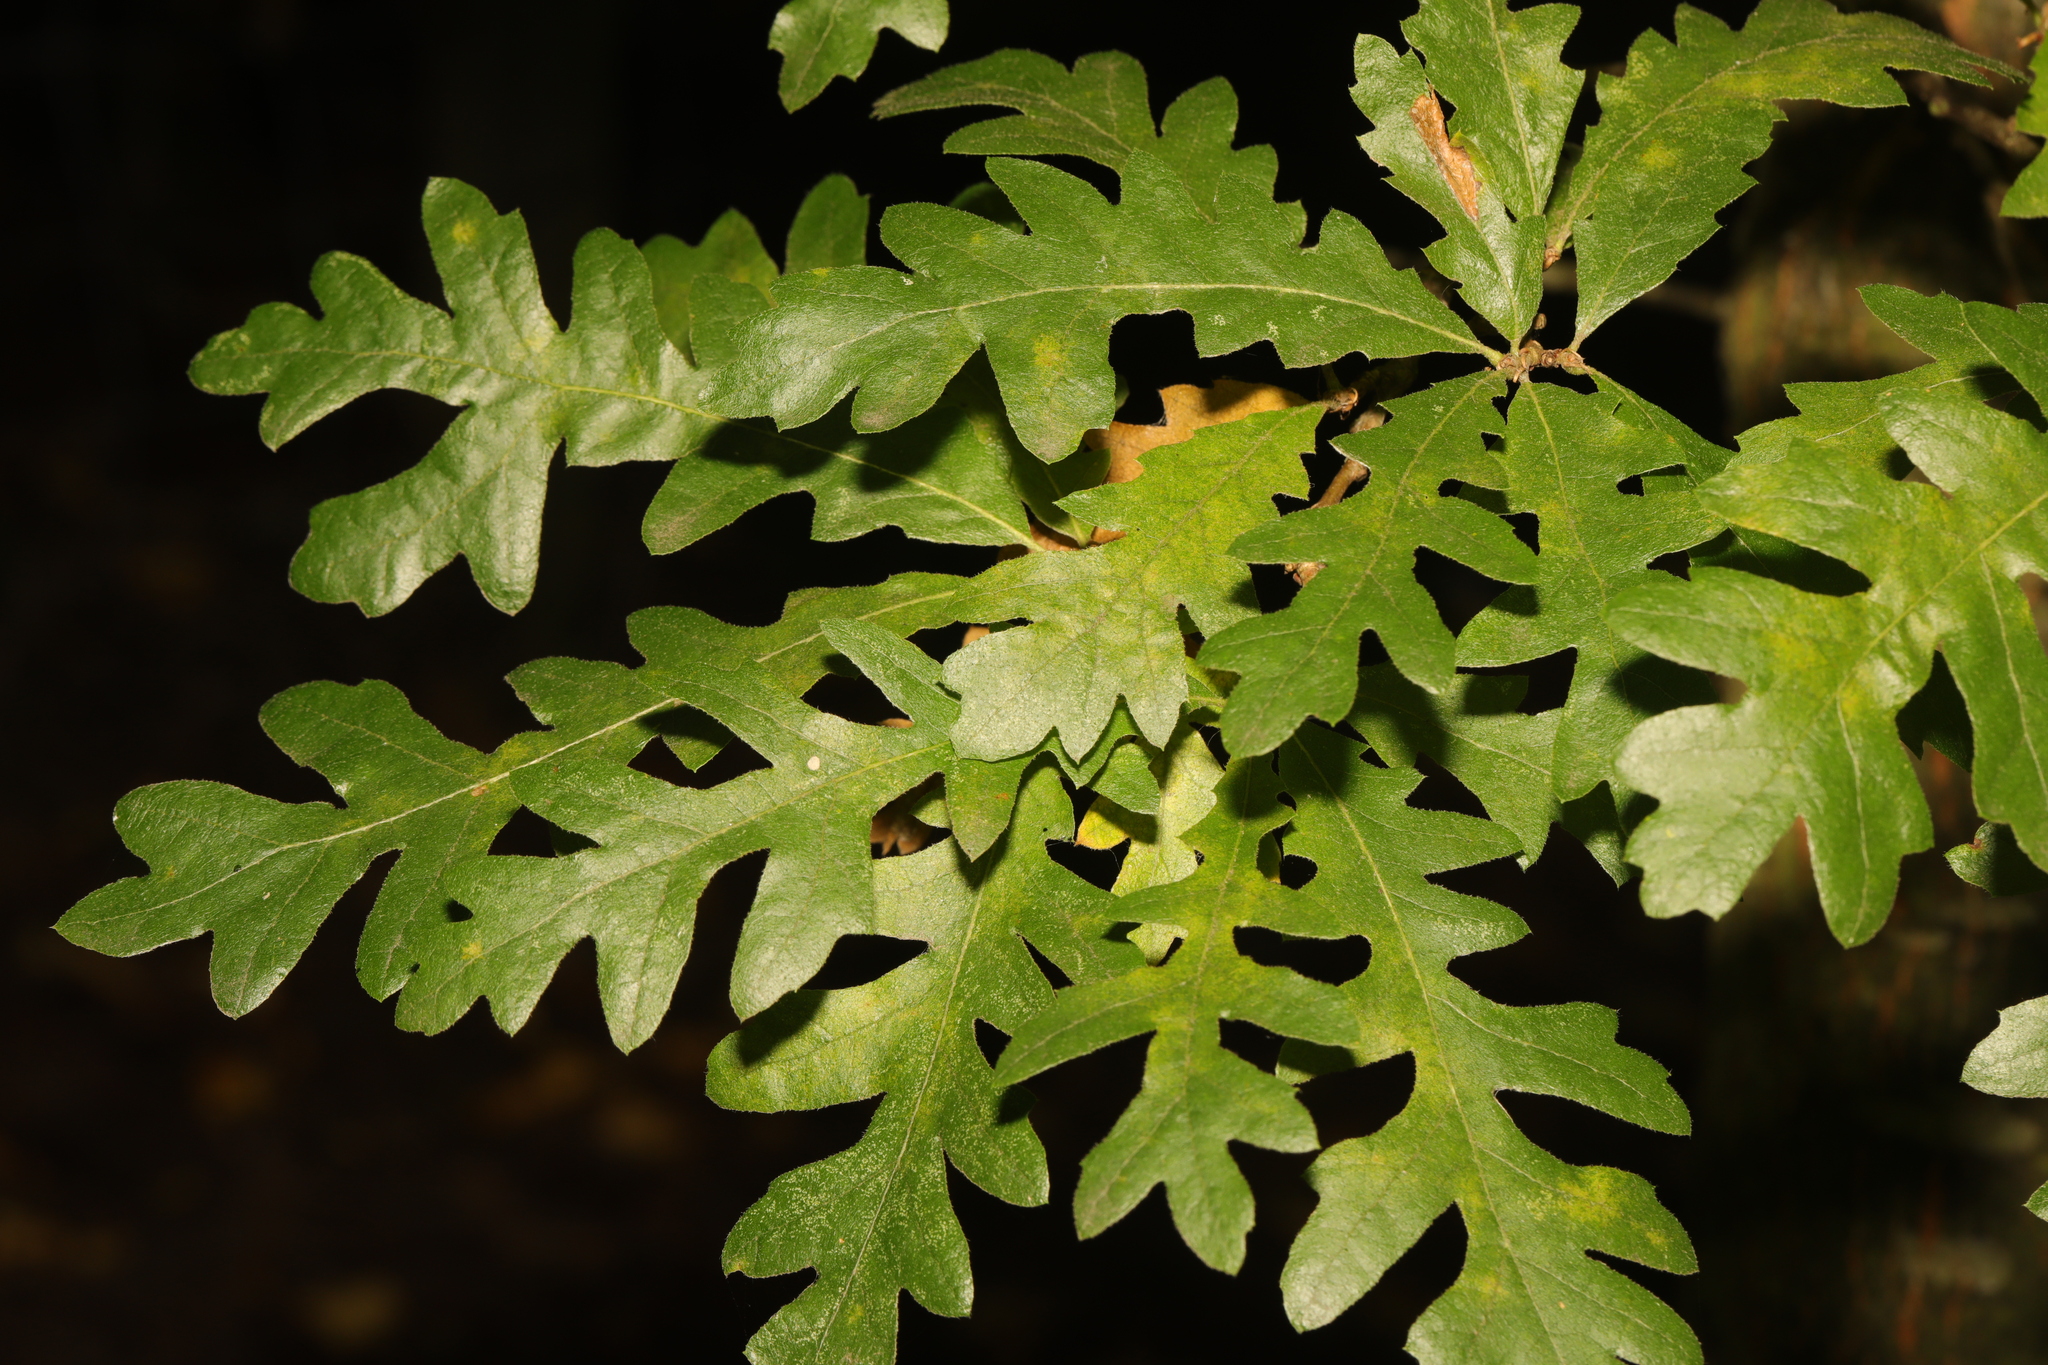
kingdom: Plantae
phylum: Tracheophyta
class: Magnoliopsida
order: Fagales
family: Fagaceae
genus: Quercus
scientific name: Quercus cerris
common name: Turkey oak
